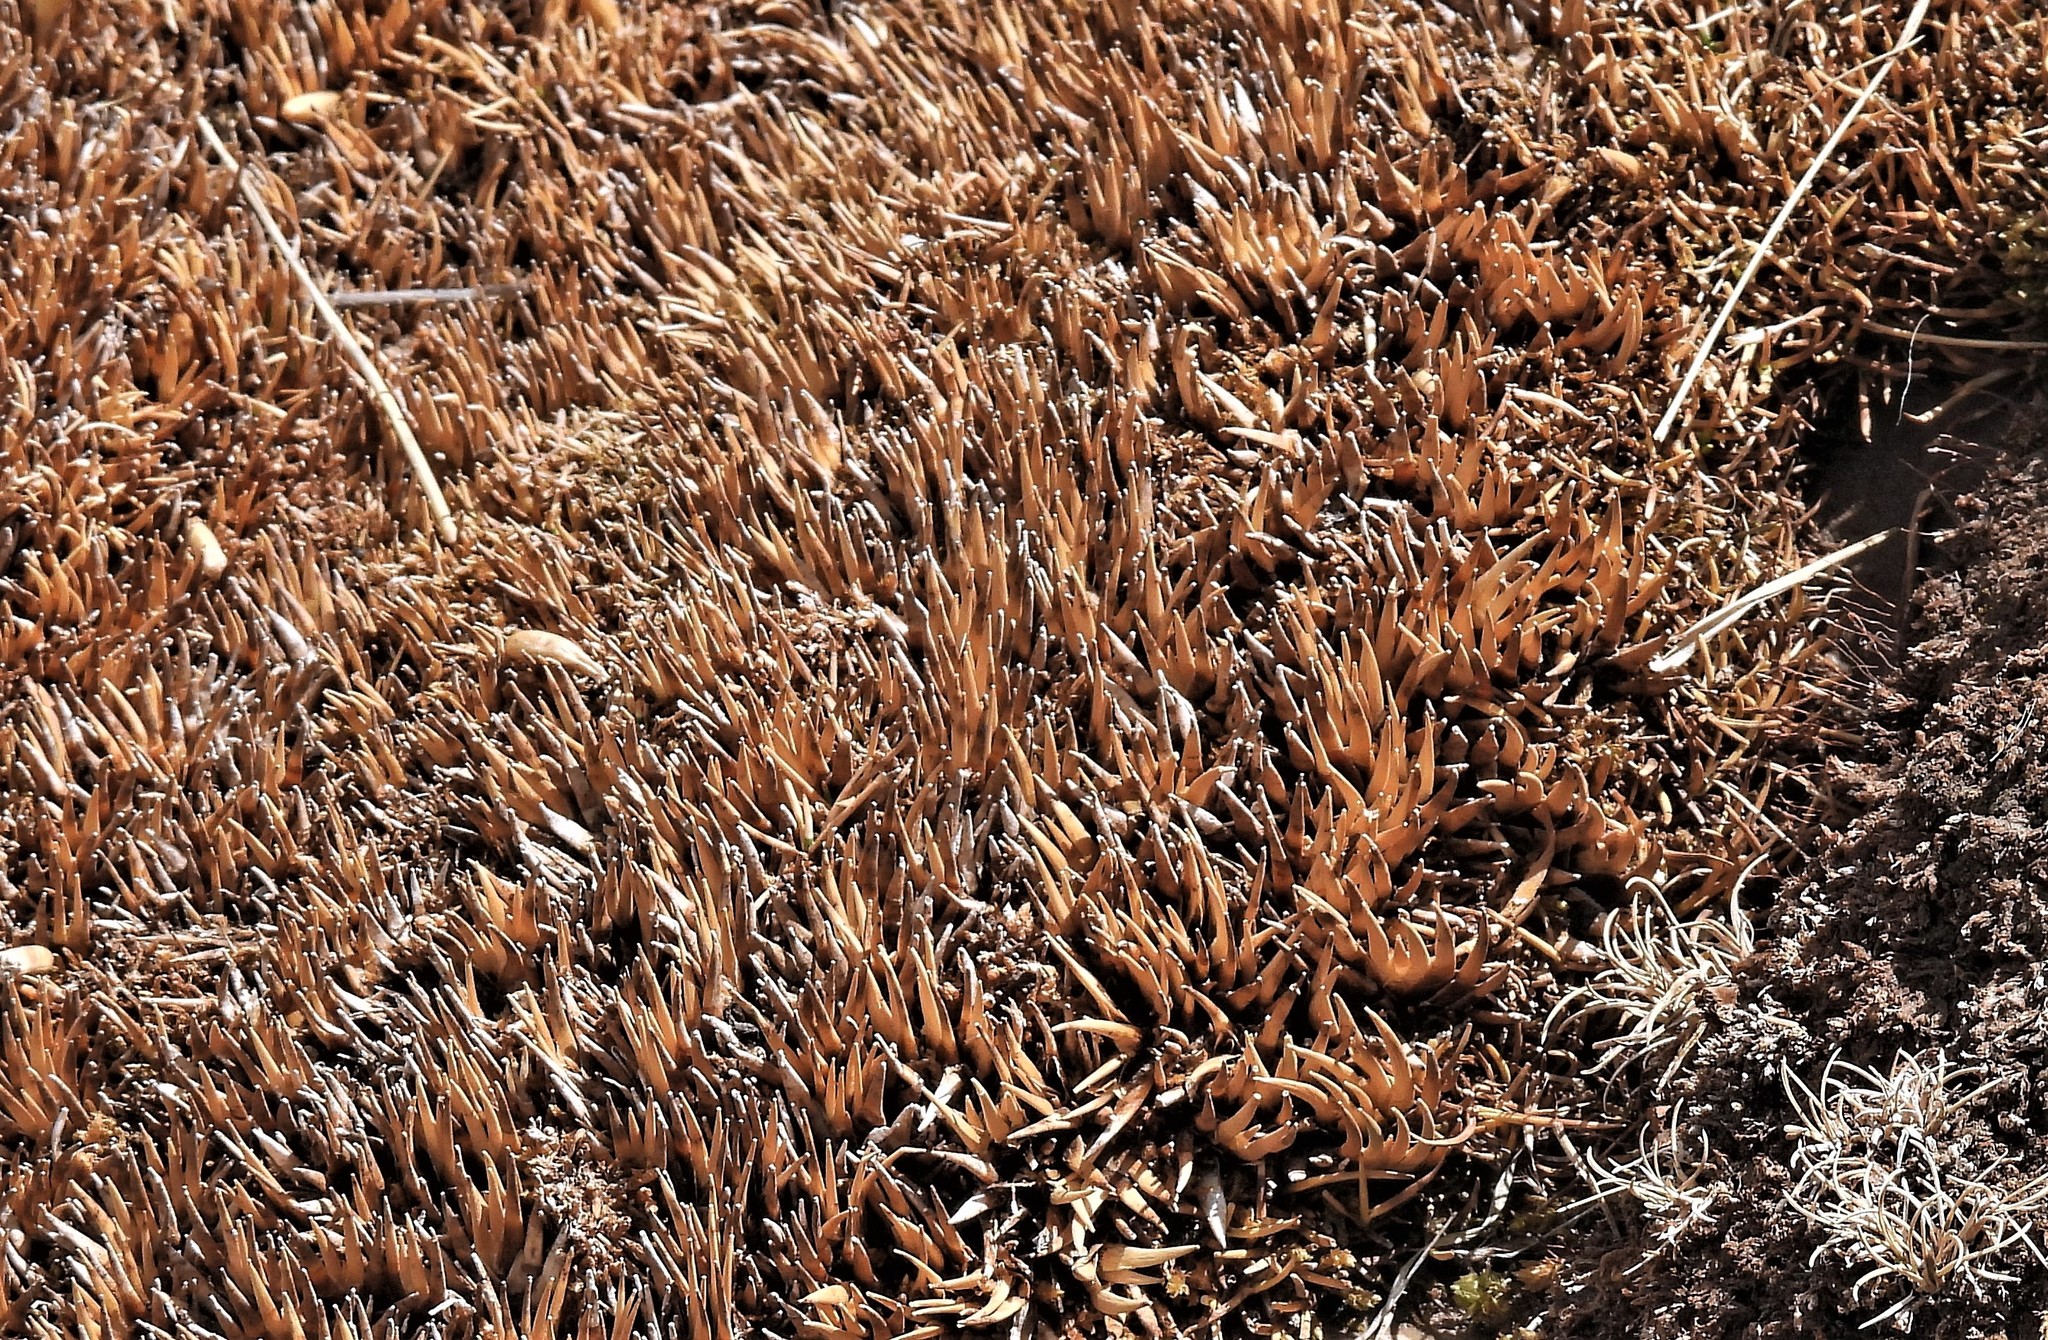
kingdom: Plantae
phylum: Tracheophyta
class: Liliopsida
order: Poales
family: Juncaceae
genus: Distichia
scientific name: Distichia muscoides
